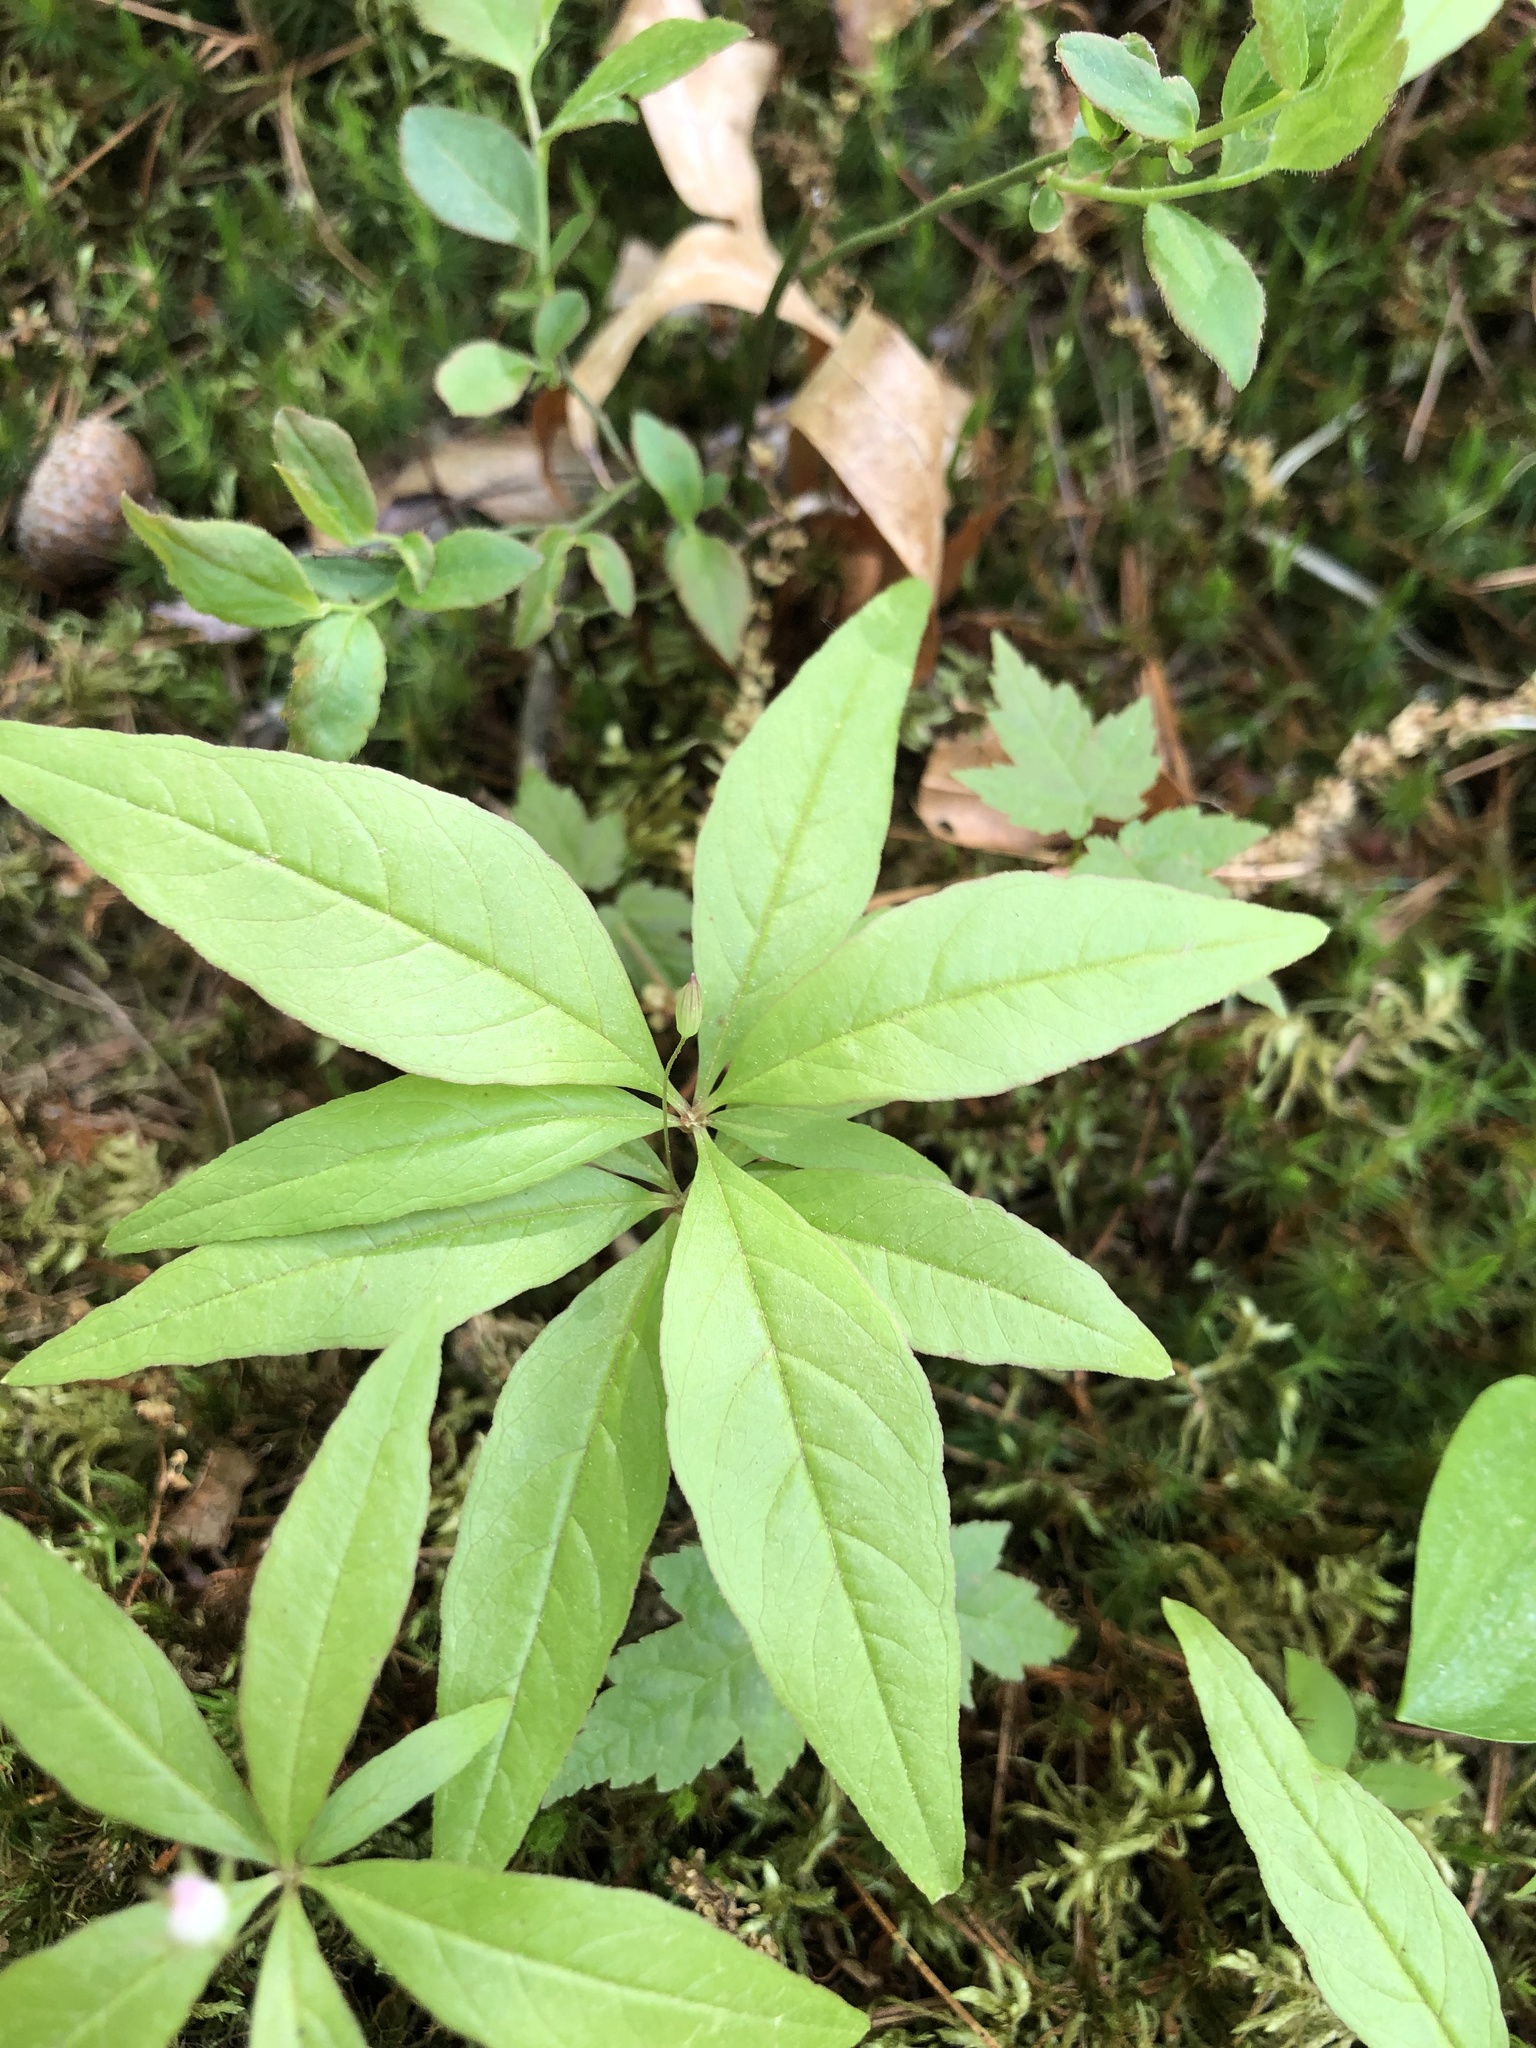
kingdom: Plantae
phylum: Tracheophyta
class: Magnoliopsida
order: Ericales
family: Primulaceae
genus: Lysimachia
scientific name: Lysimachia borealis
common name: American starflower
